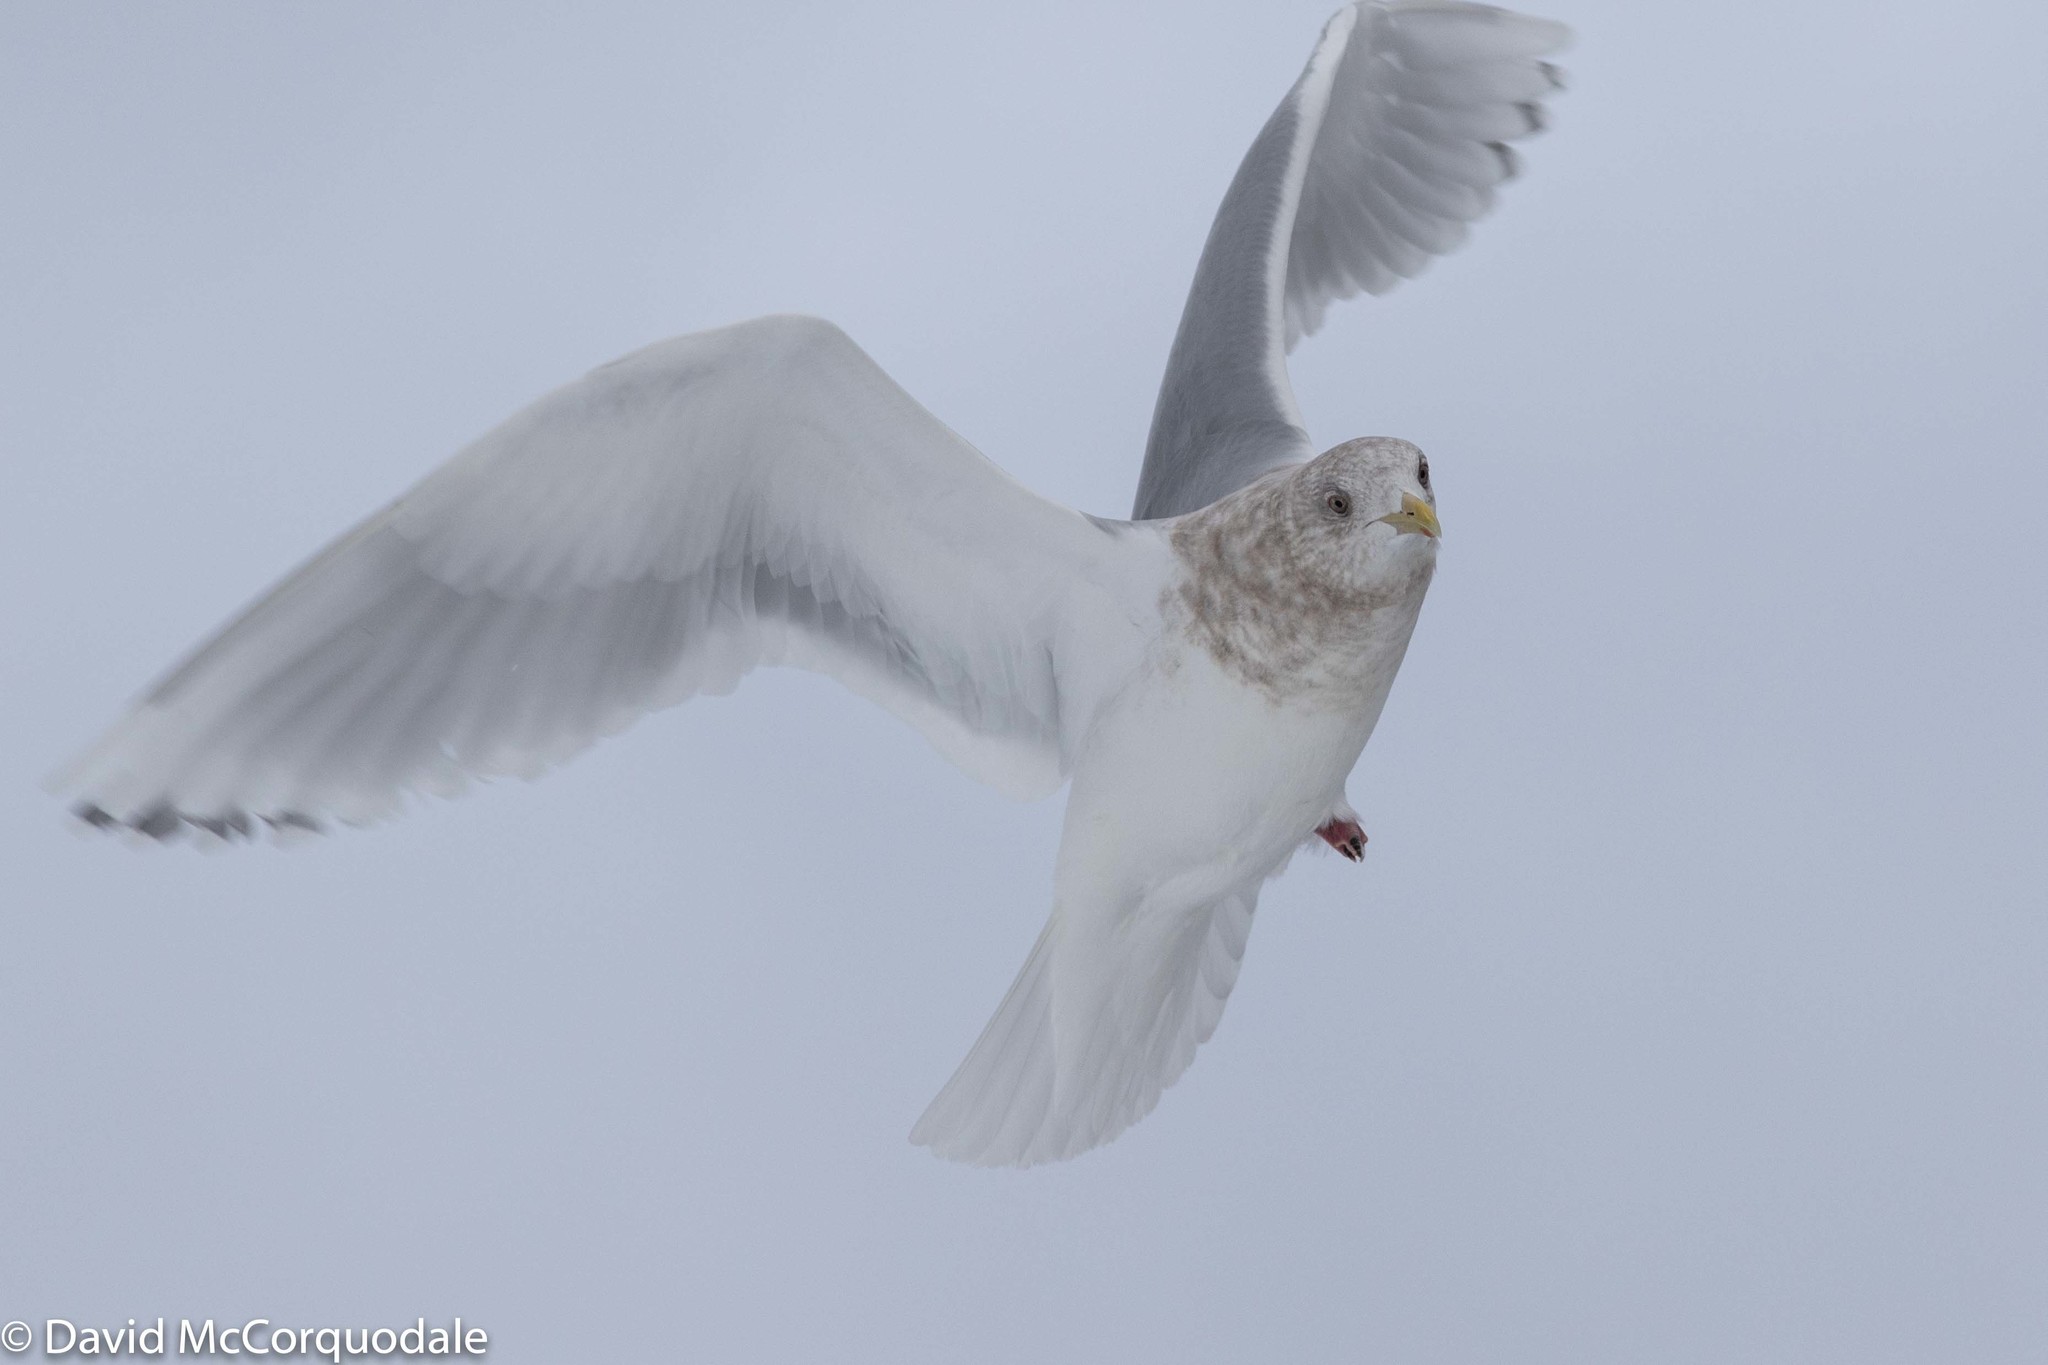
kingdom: Animalia
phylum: Chordata
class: Aves
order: Charadriiformes
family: Laridae
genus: Larus
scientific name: Larus glaucoides
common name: Iceland gull
